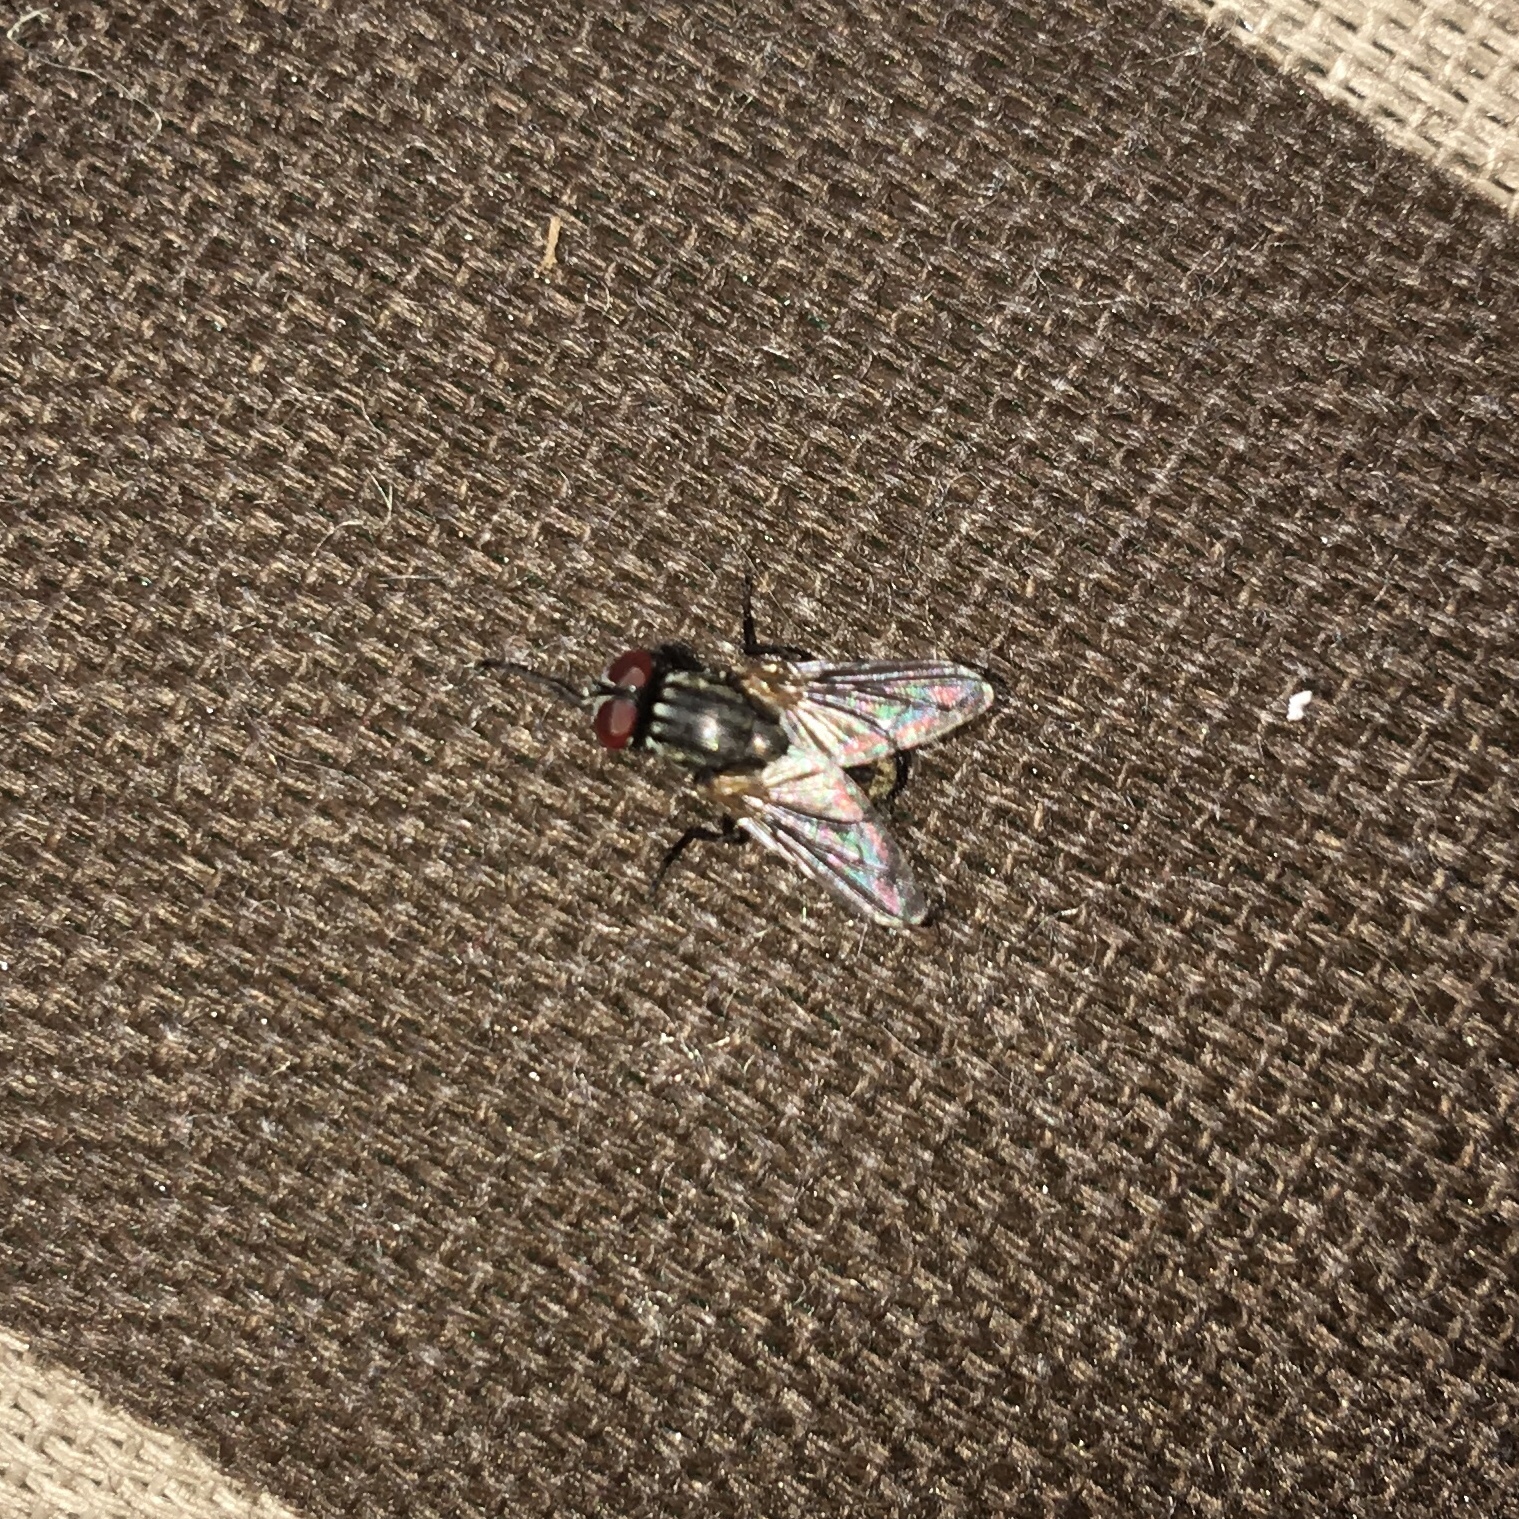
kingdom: Animalia
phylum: Arthropoda
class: Insecta
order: Diptera
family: Muscidae
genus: Musca
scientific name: Musca domestica
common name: House fly
